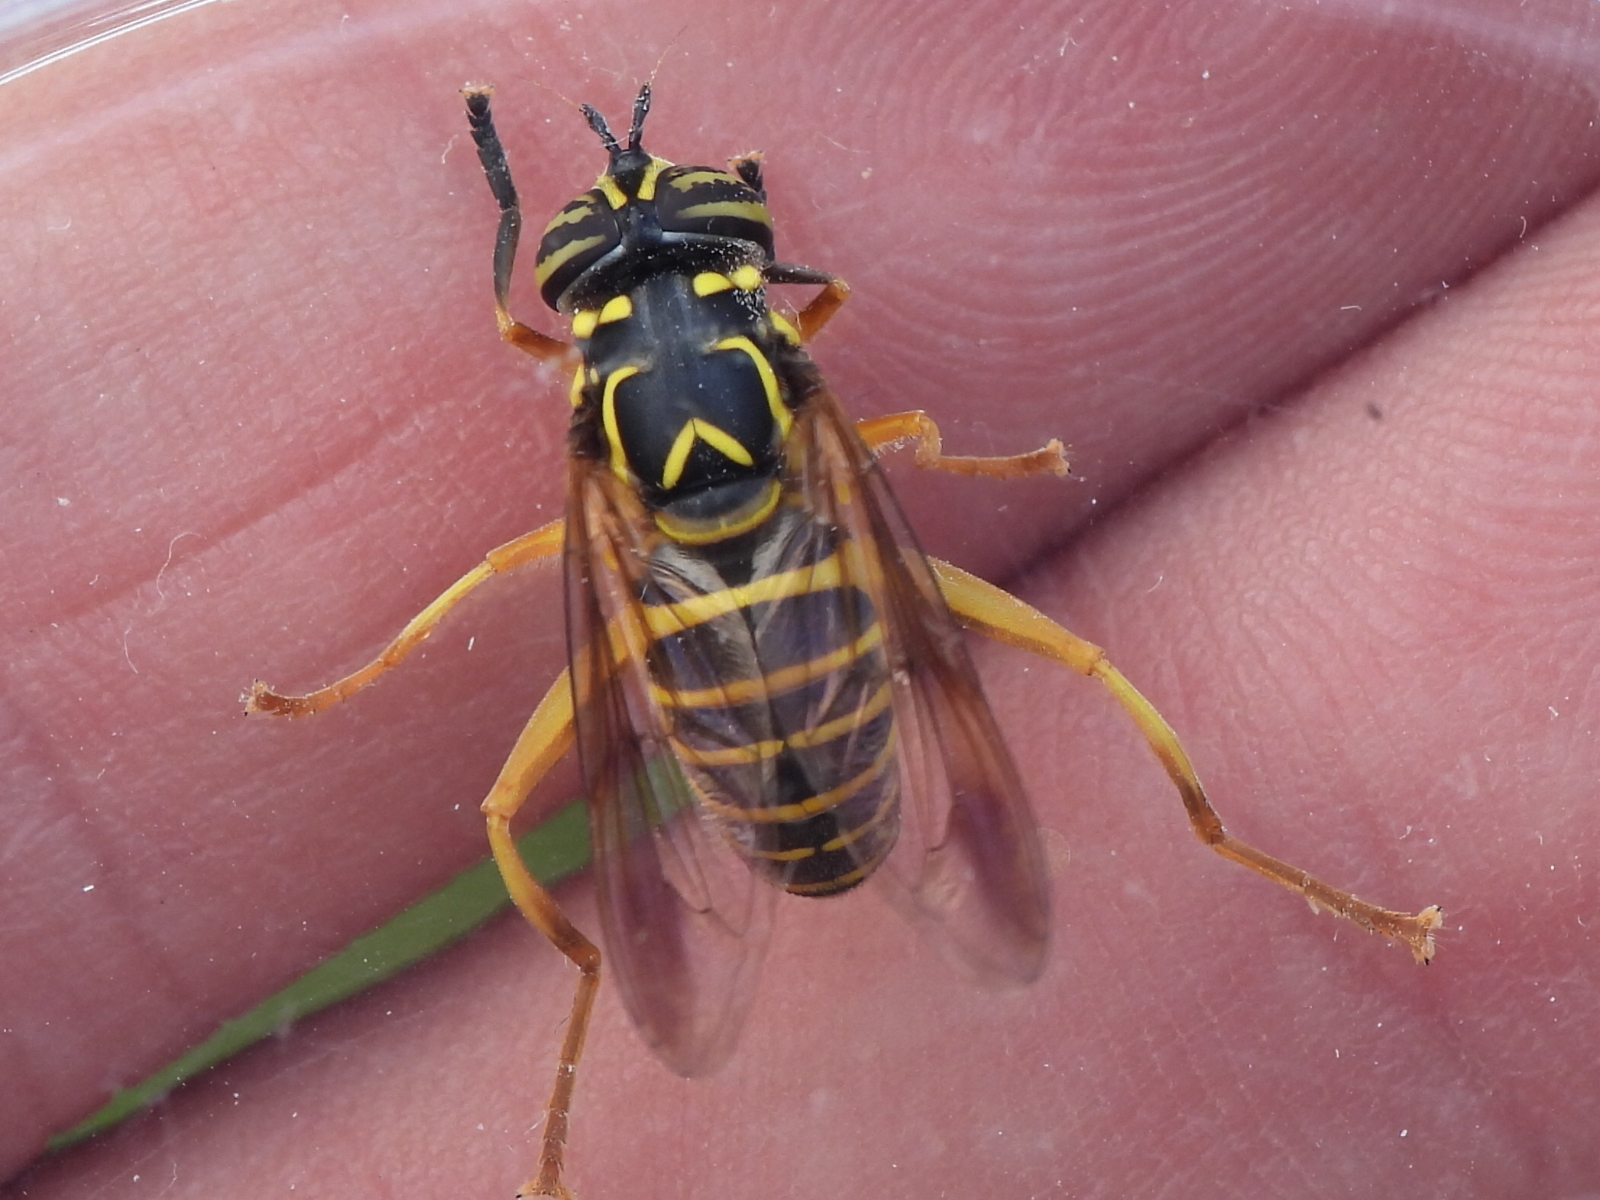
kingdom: Animalia
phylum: Arthropoda
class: Insecta
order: Diptera
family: Syrphidae
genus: Spilomyia
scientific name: Spilomyia longicornis
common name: Eastern hornet fly
